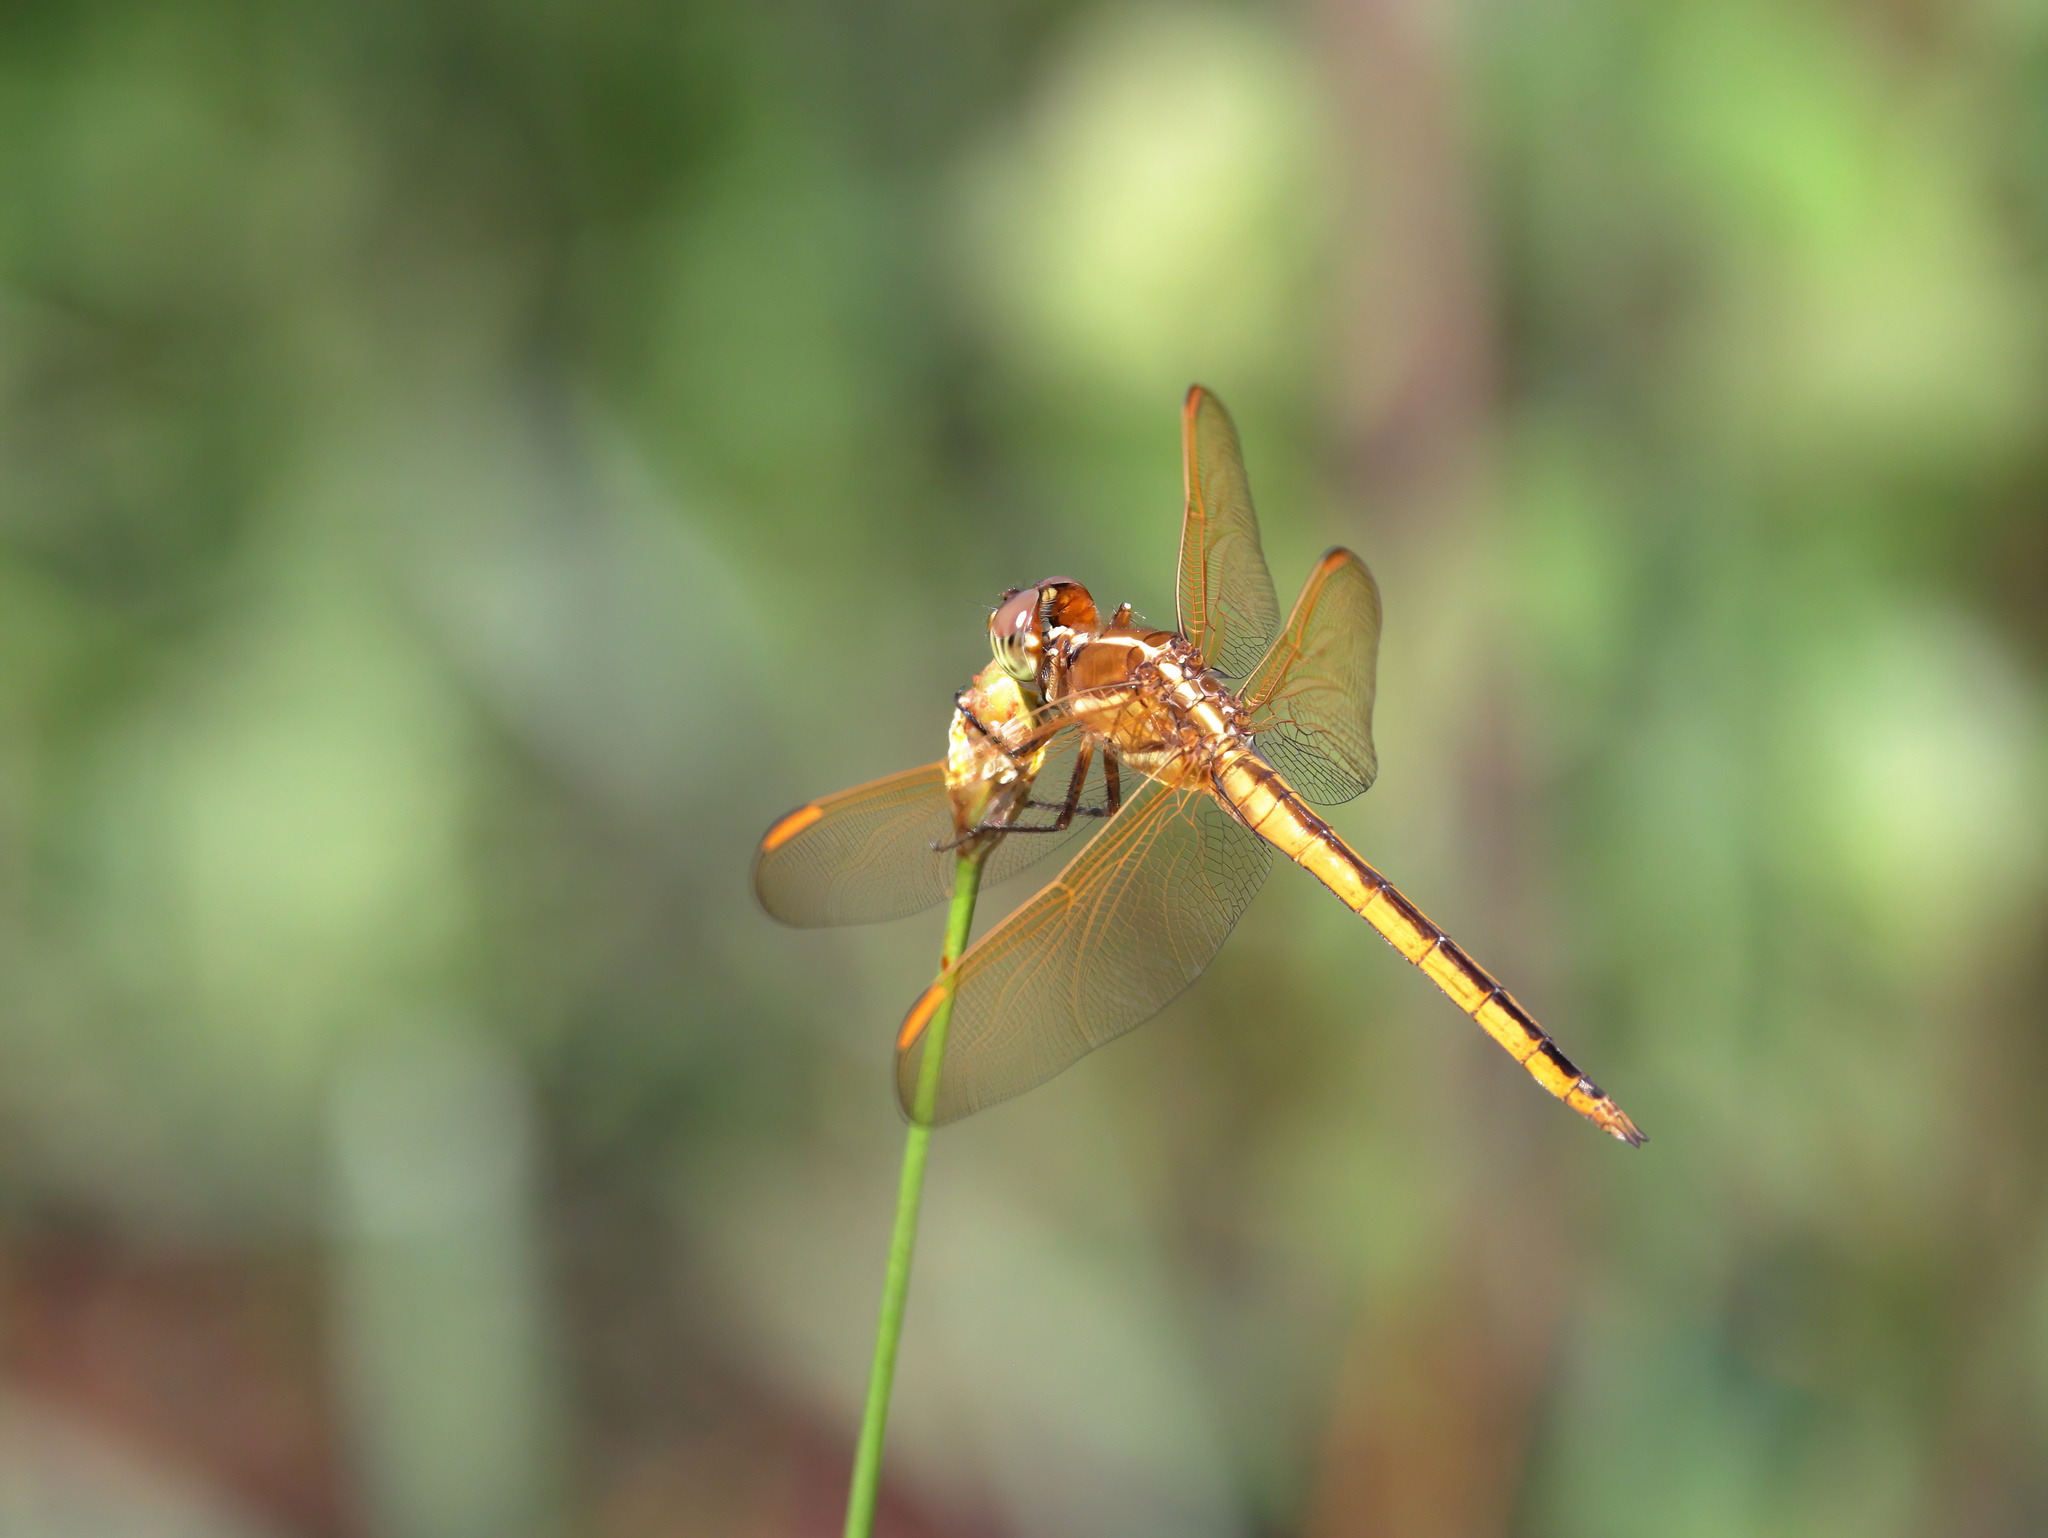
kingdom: Animalia
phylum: Arthropoda
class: Insecta
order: Odonata
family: Libellulidae
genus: Libellula
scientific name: Libellula auripennis
